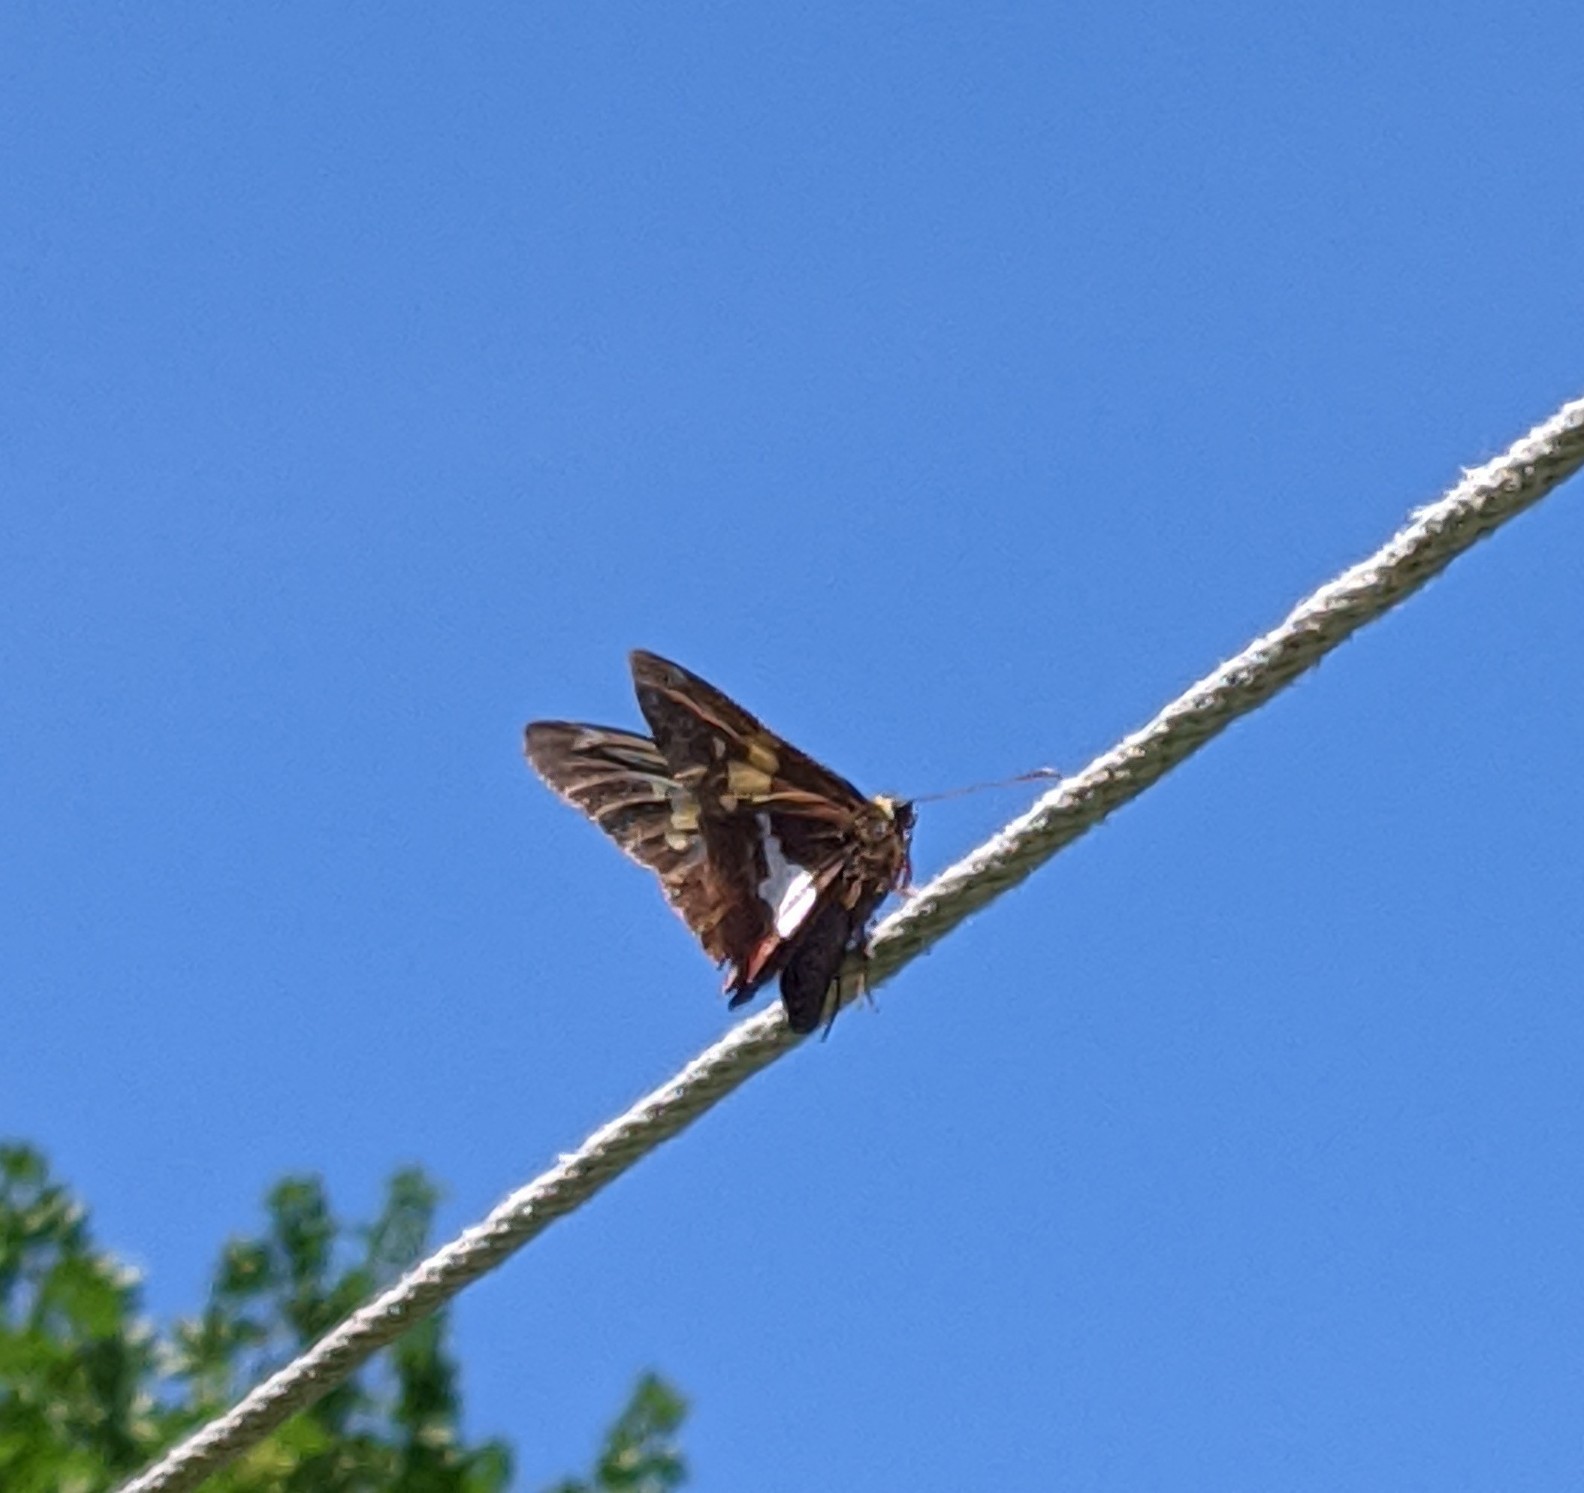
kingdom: Animalia
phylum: Arthropoda
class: Insecta
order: Lepidoptera
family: Hesperiidae
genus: Epargyreus
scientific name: Epargyreus clarus
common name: Silver-spotted skipper
